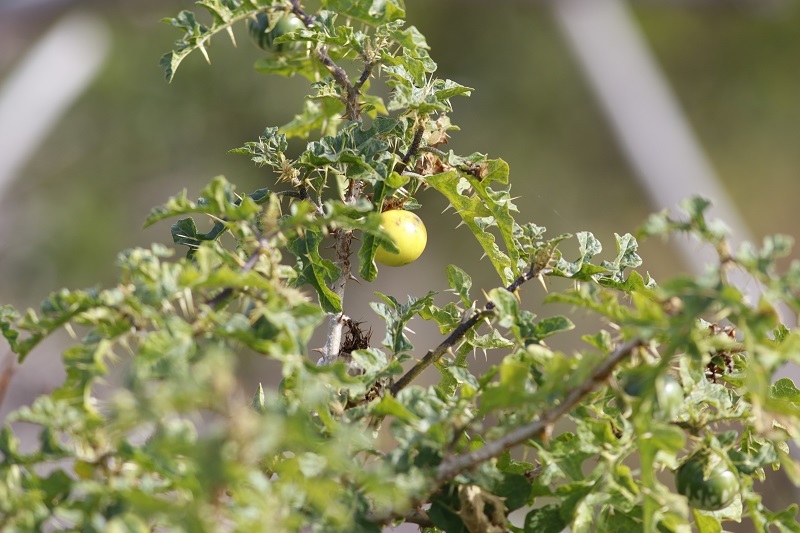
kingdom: Plantae
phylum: Tracheophyta
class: Magnoliopsida
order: Solanales
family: Solanaceae
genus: Solanum
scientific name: Solanum linnaeanum
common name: Nightshade
